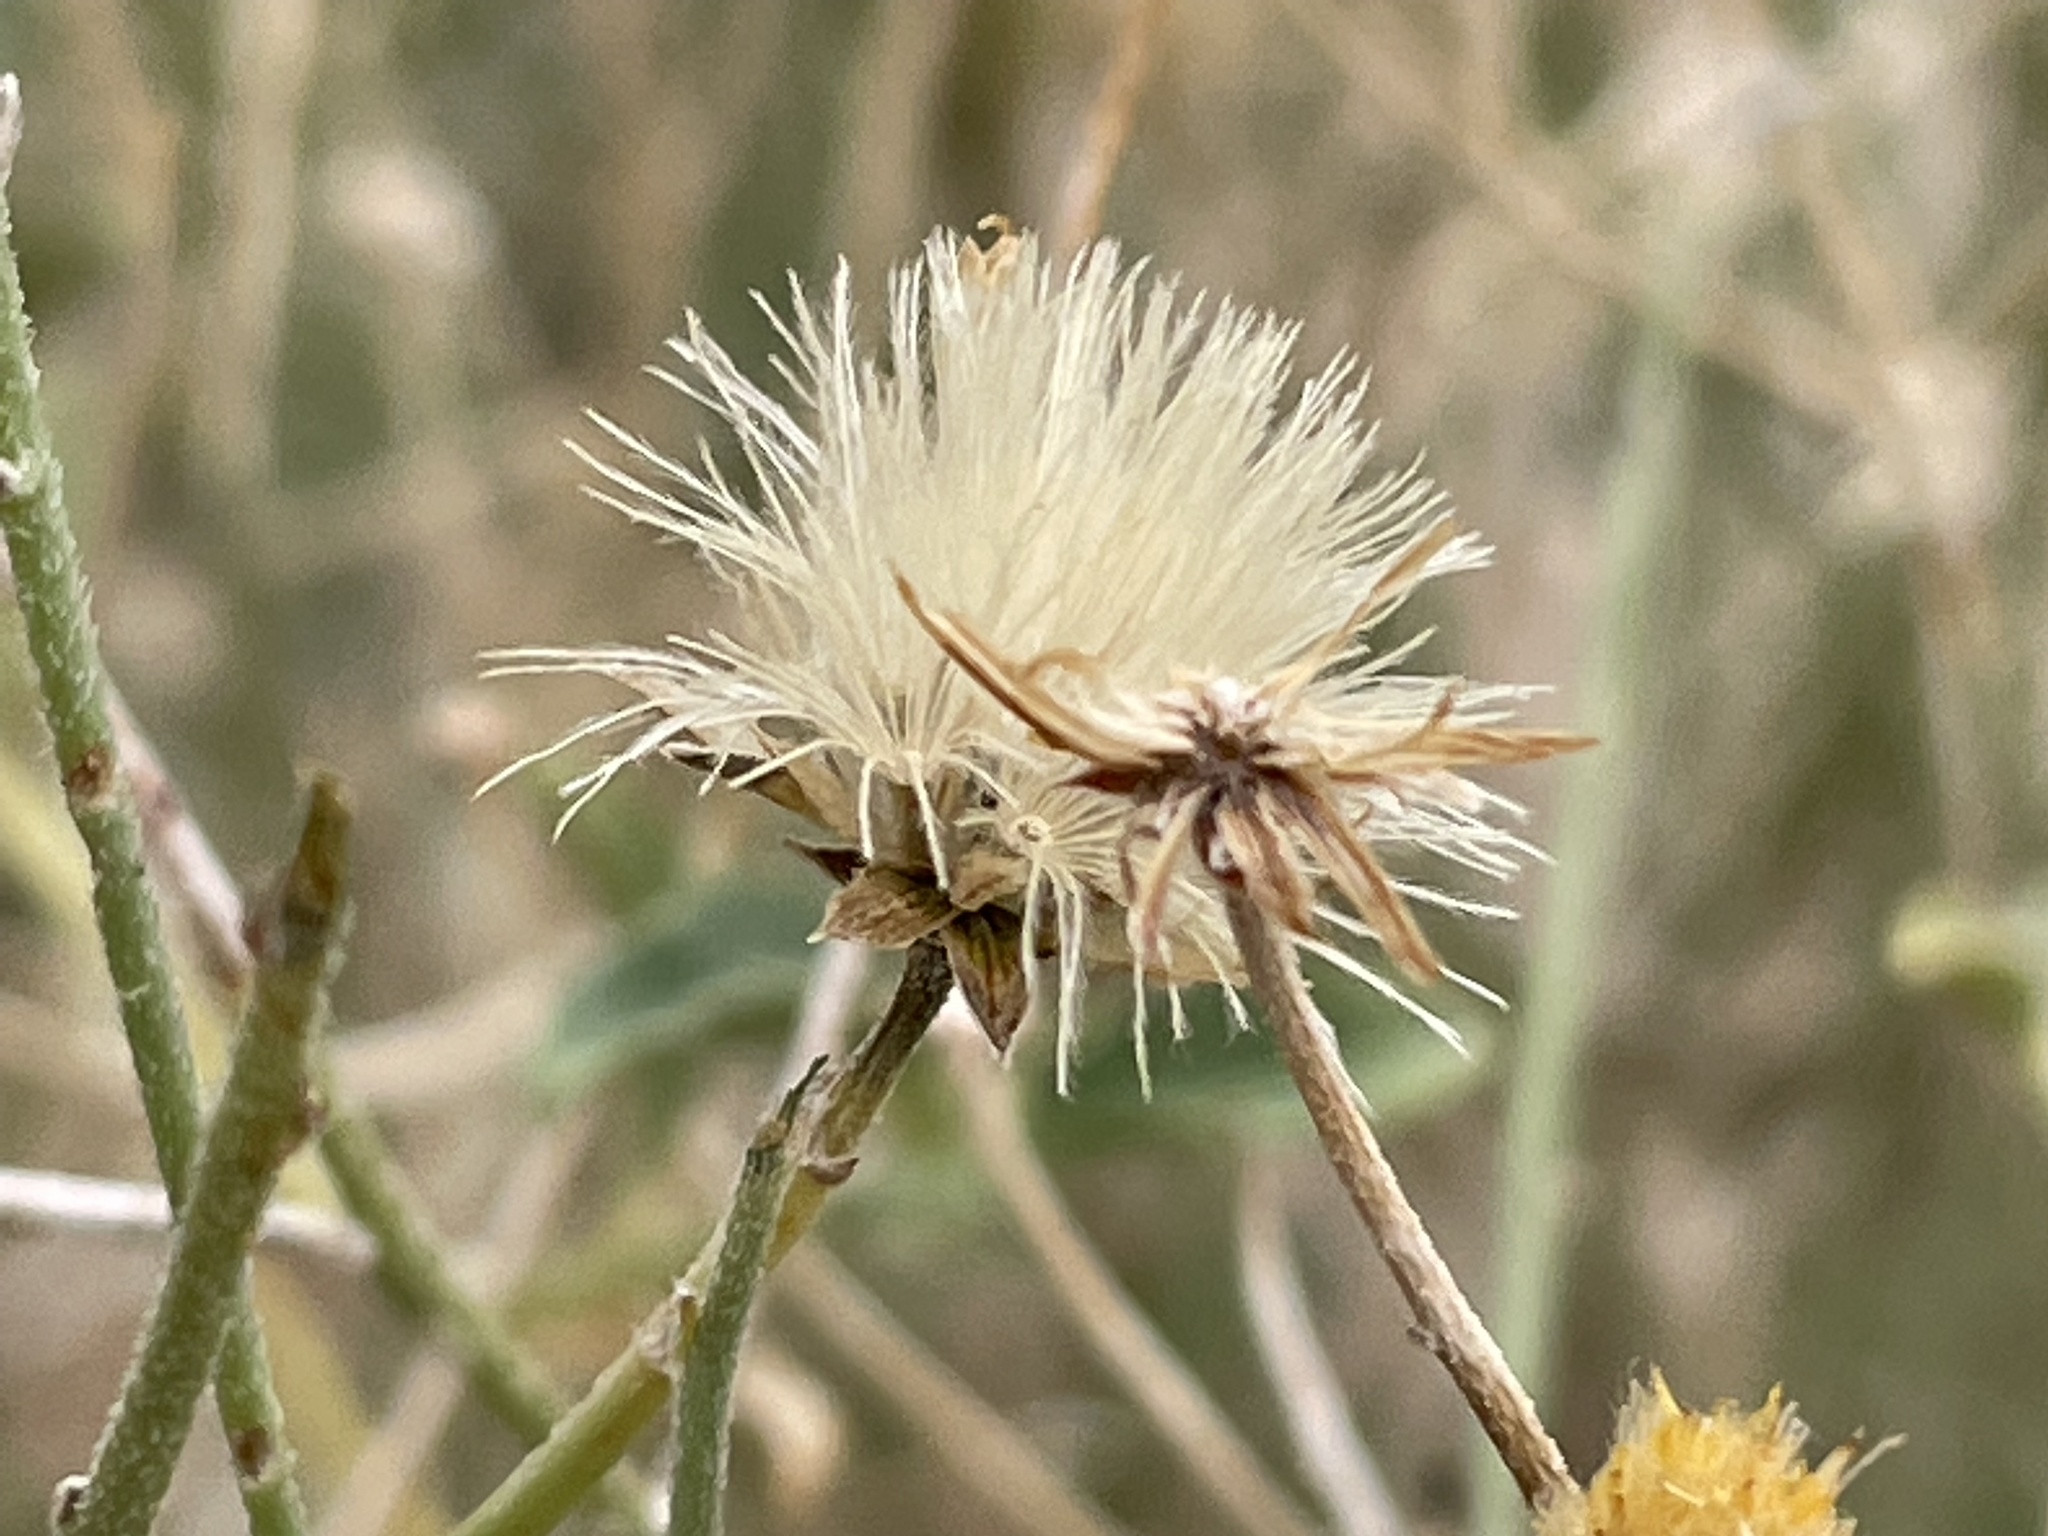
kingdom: Plantae
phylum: Tracheophyta
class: Magnoliopsida
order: Asterales
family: Asteraceae
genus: Bebbia
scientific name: Bebbia juncea
